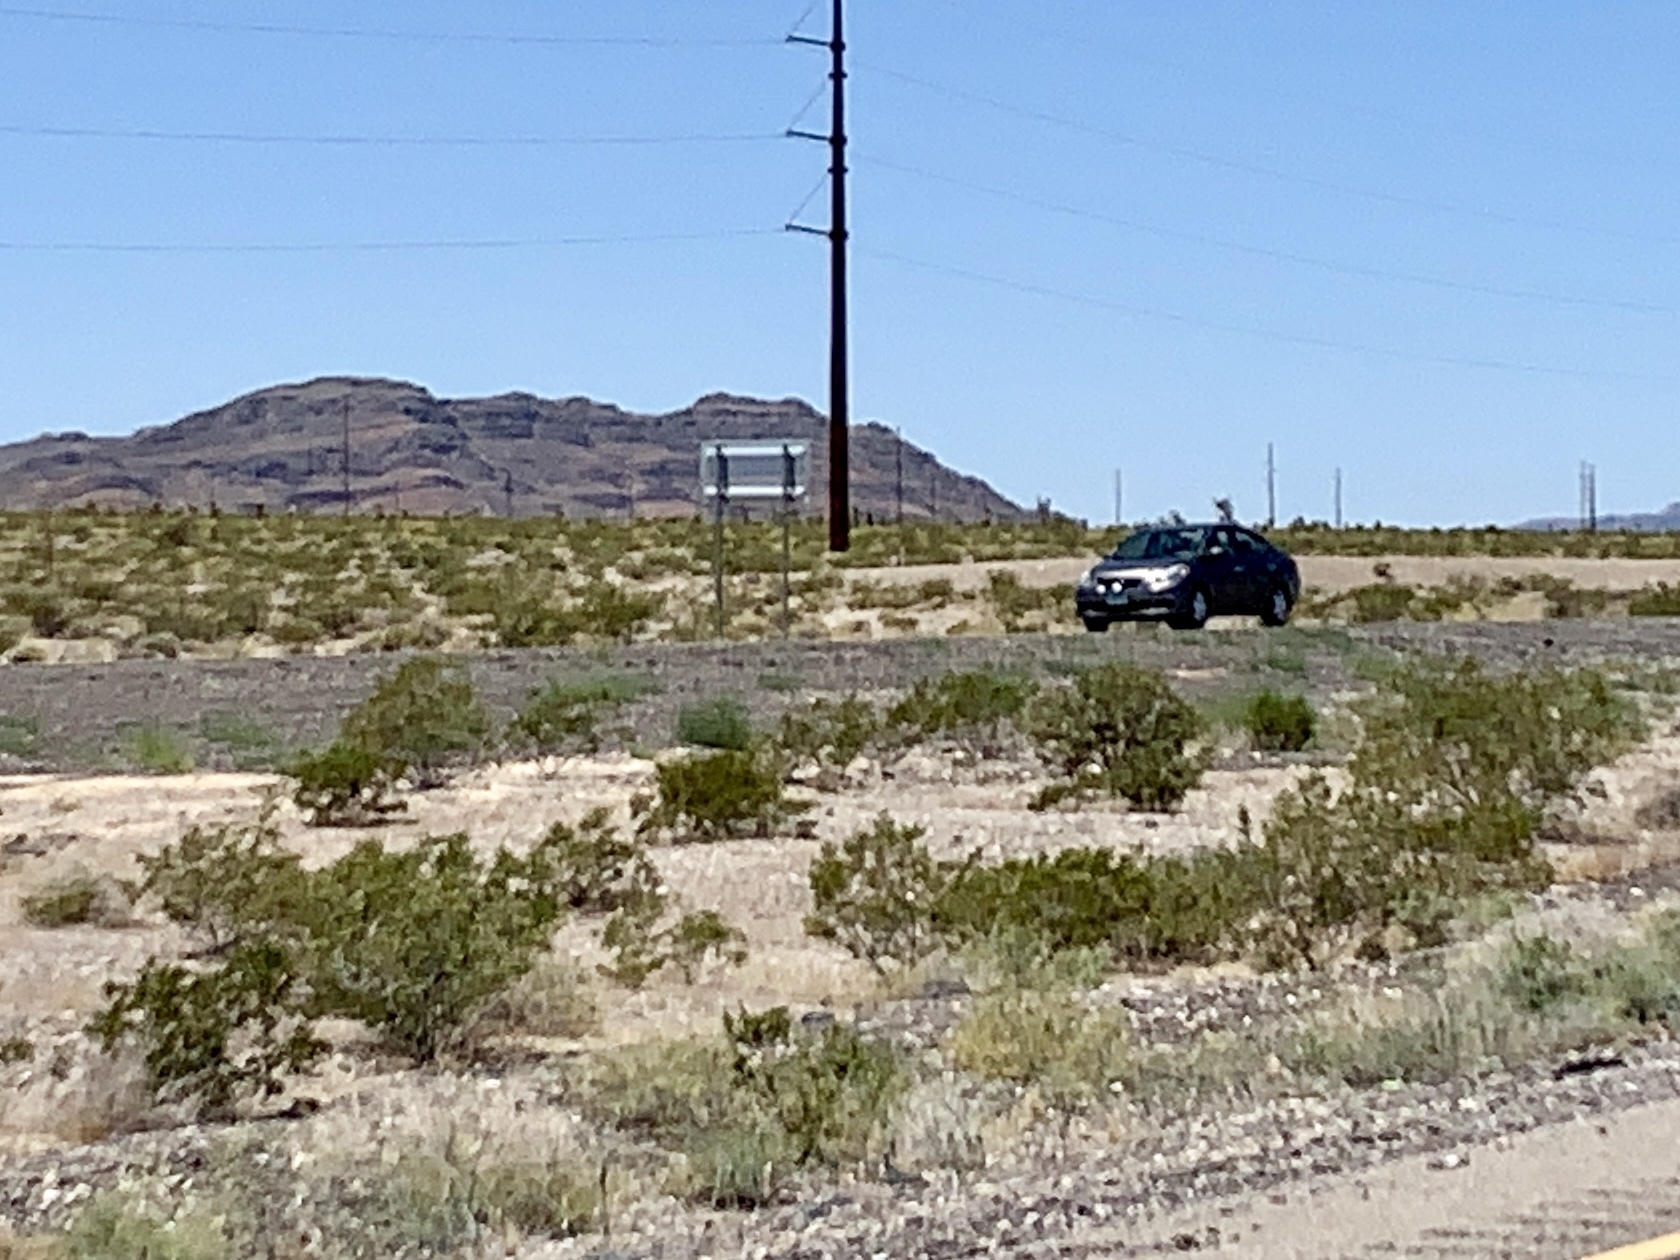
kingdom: Plantae
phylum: Tracheophyta
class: Magnoliopsida
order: Zygophyllales
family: Zygophyllaceae
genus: Larrea
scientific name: Larrea tridentata
